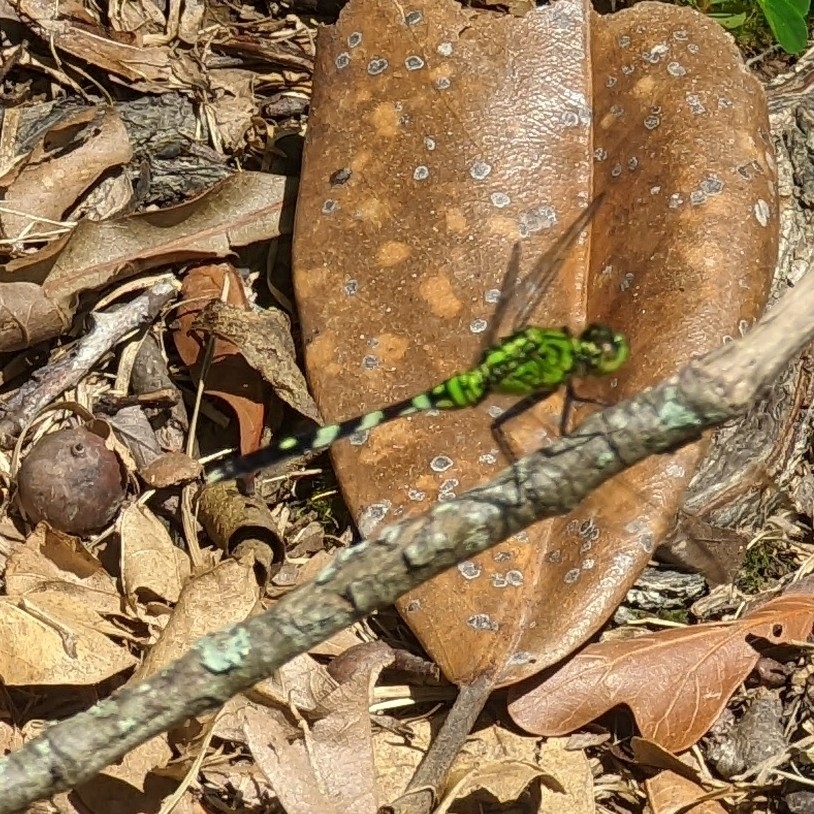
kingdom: Animalia
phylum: Arthropoda
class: Insecta
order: Odonata
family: Libellulidae
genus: Erythemis
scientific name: Erythemis simplicicollis
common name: Eastern pondhawk
